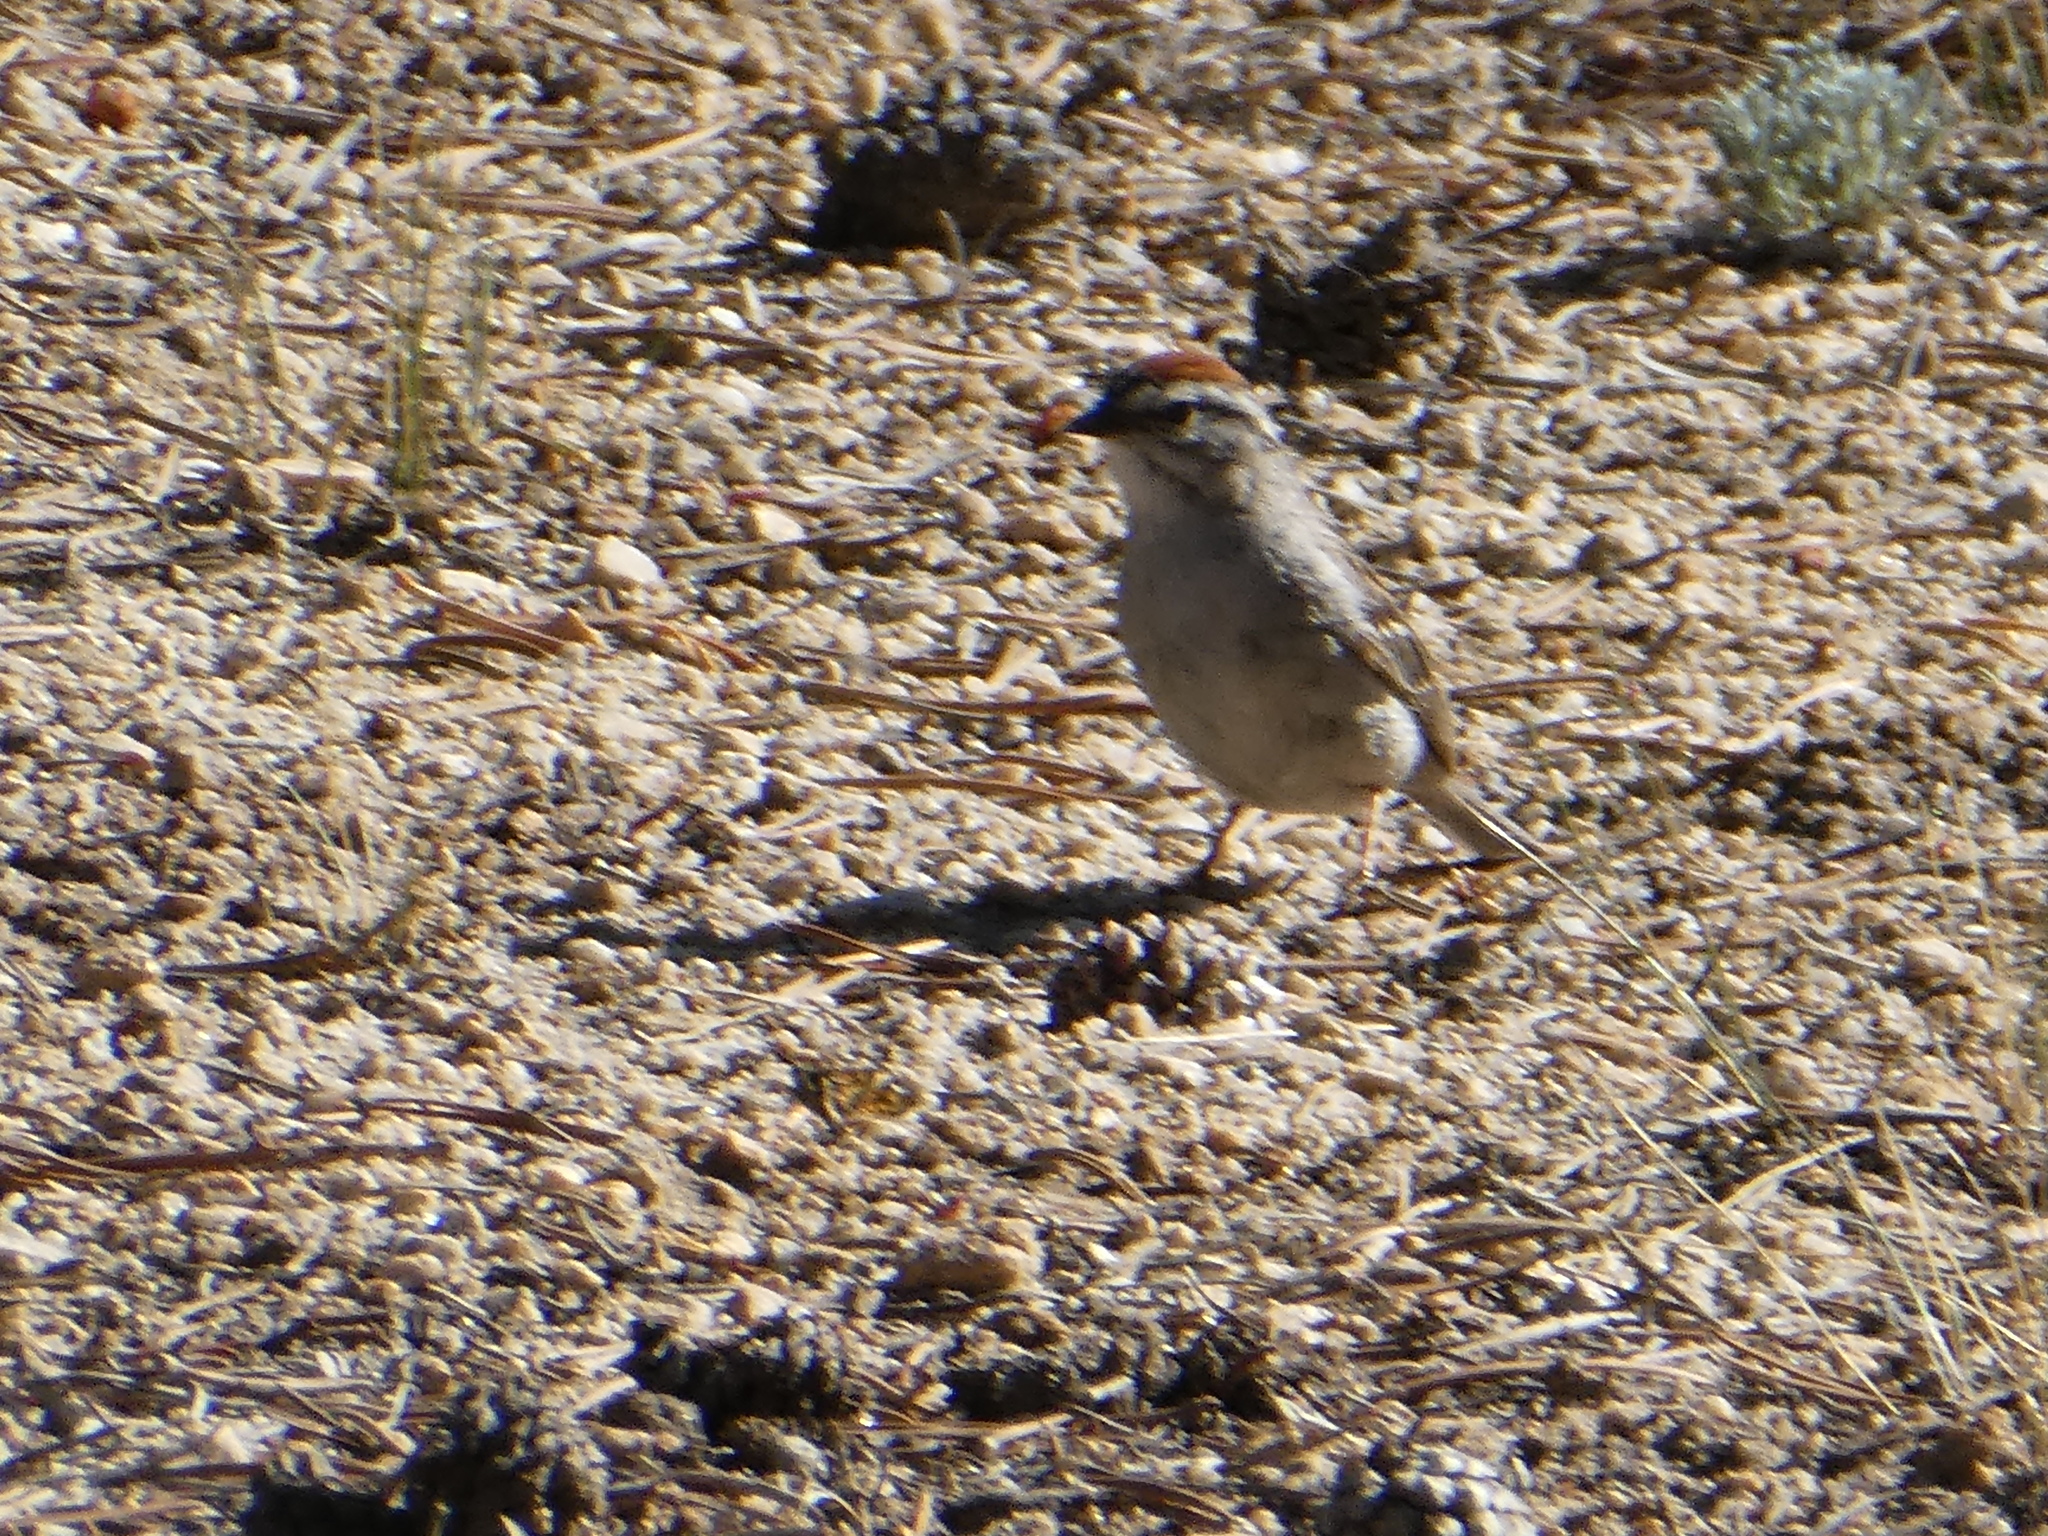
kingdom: Animalia
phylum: Chordata
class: Aves
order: Passeriformes
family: Passerellidae
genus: Spizella
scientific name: Spizella passerina
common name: Chipping sparrow
